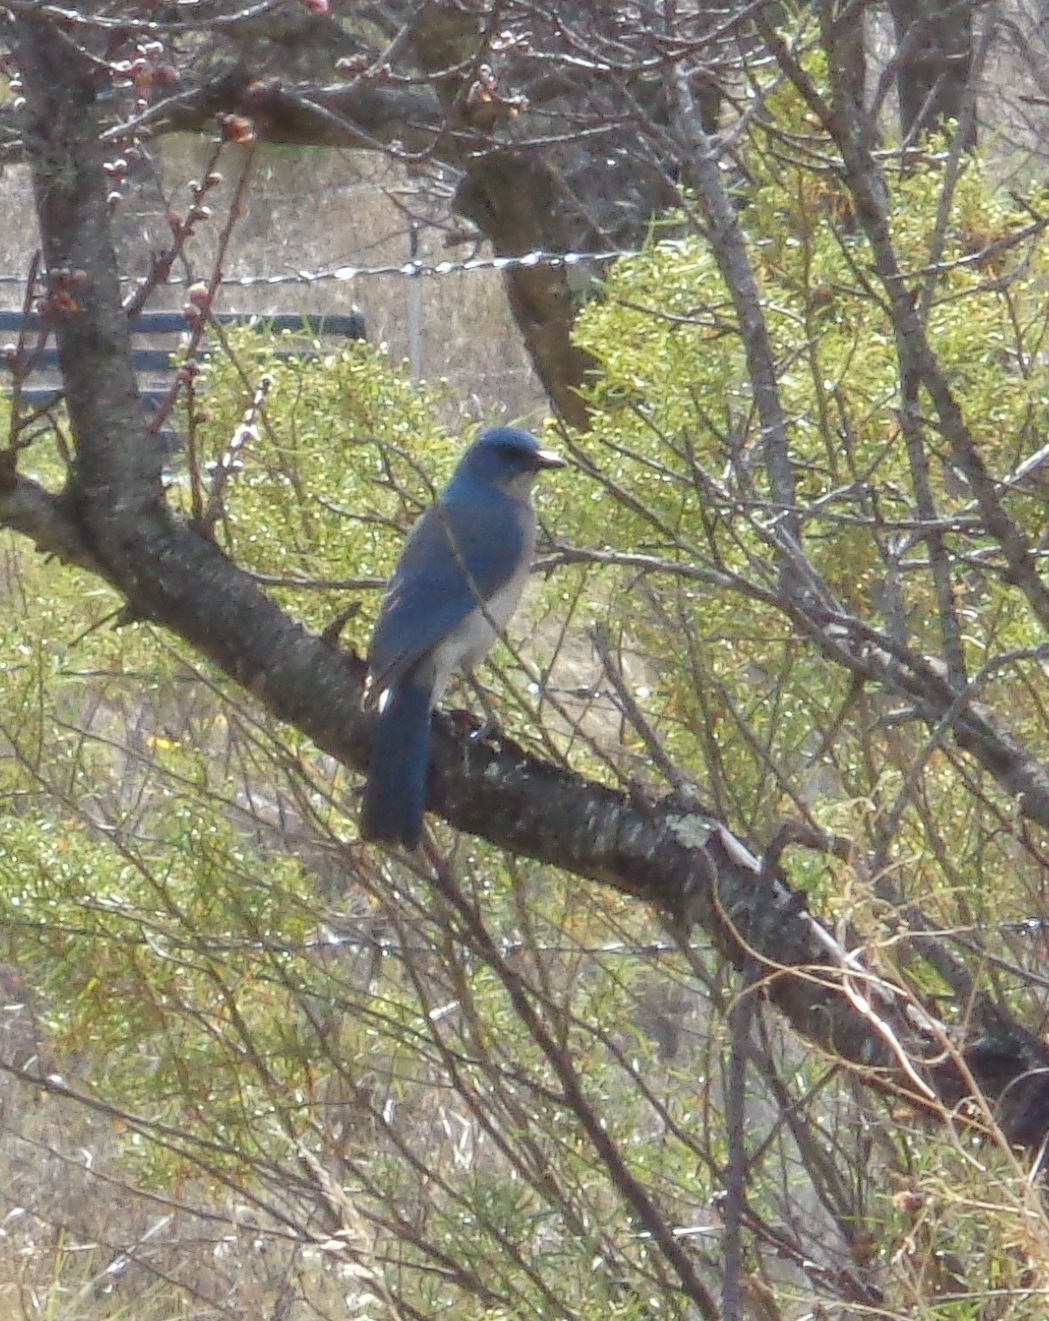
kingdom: Animalia
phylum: Chordata
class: Aves
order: Passeriformes
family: Corvidae
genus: Aphelocoma
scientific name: Aphelocoma wollweberi
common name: Mexican jay
